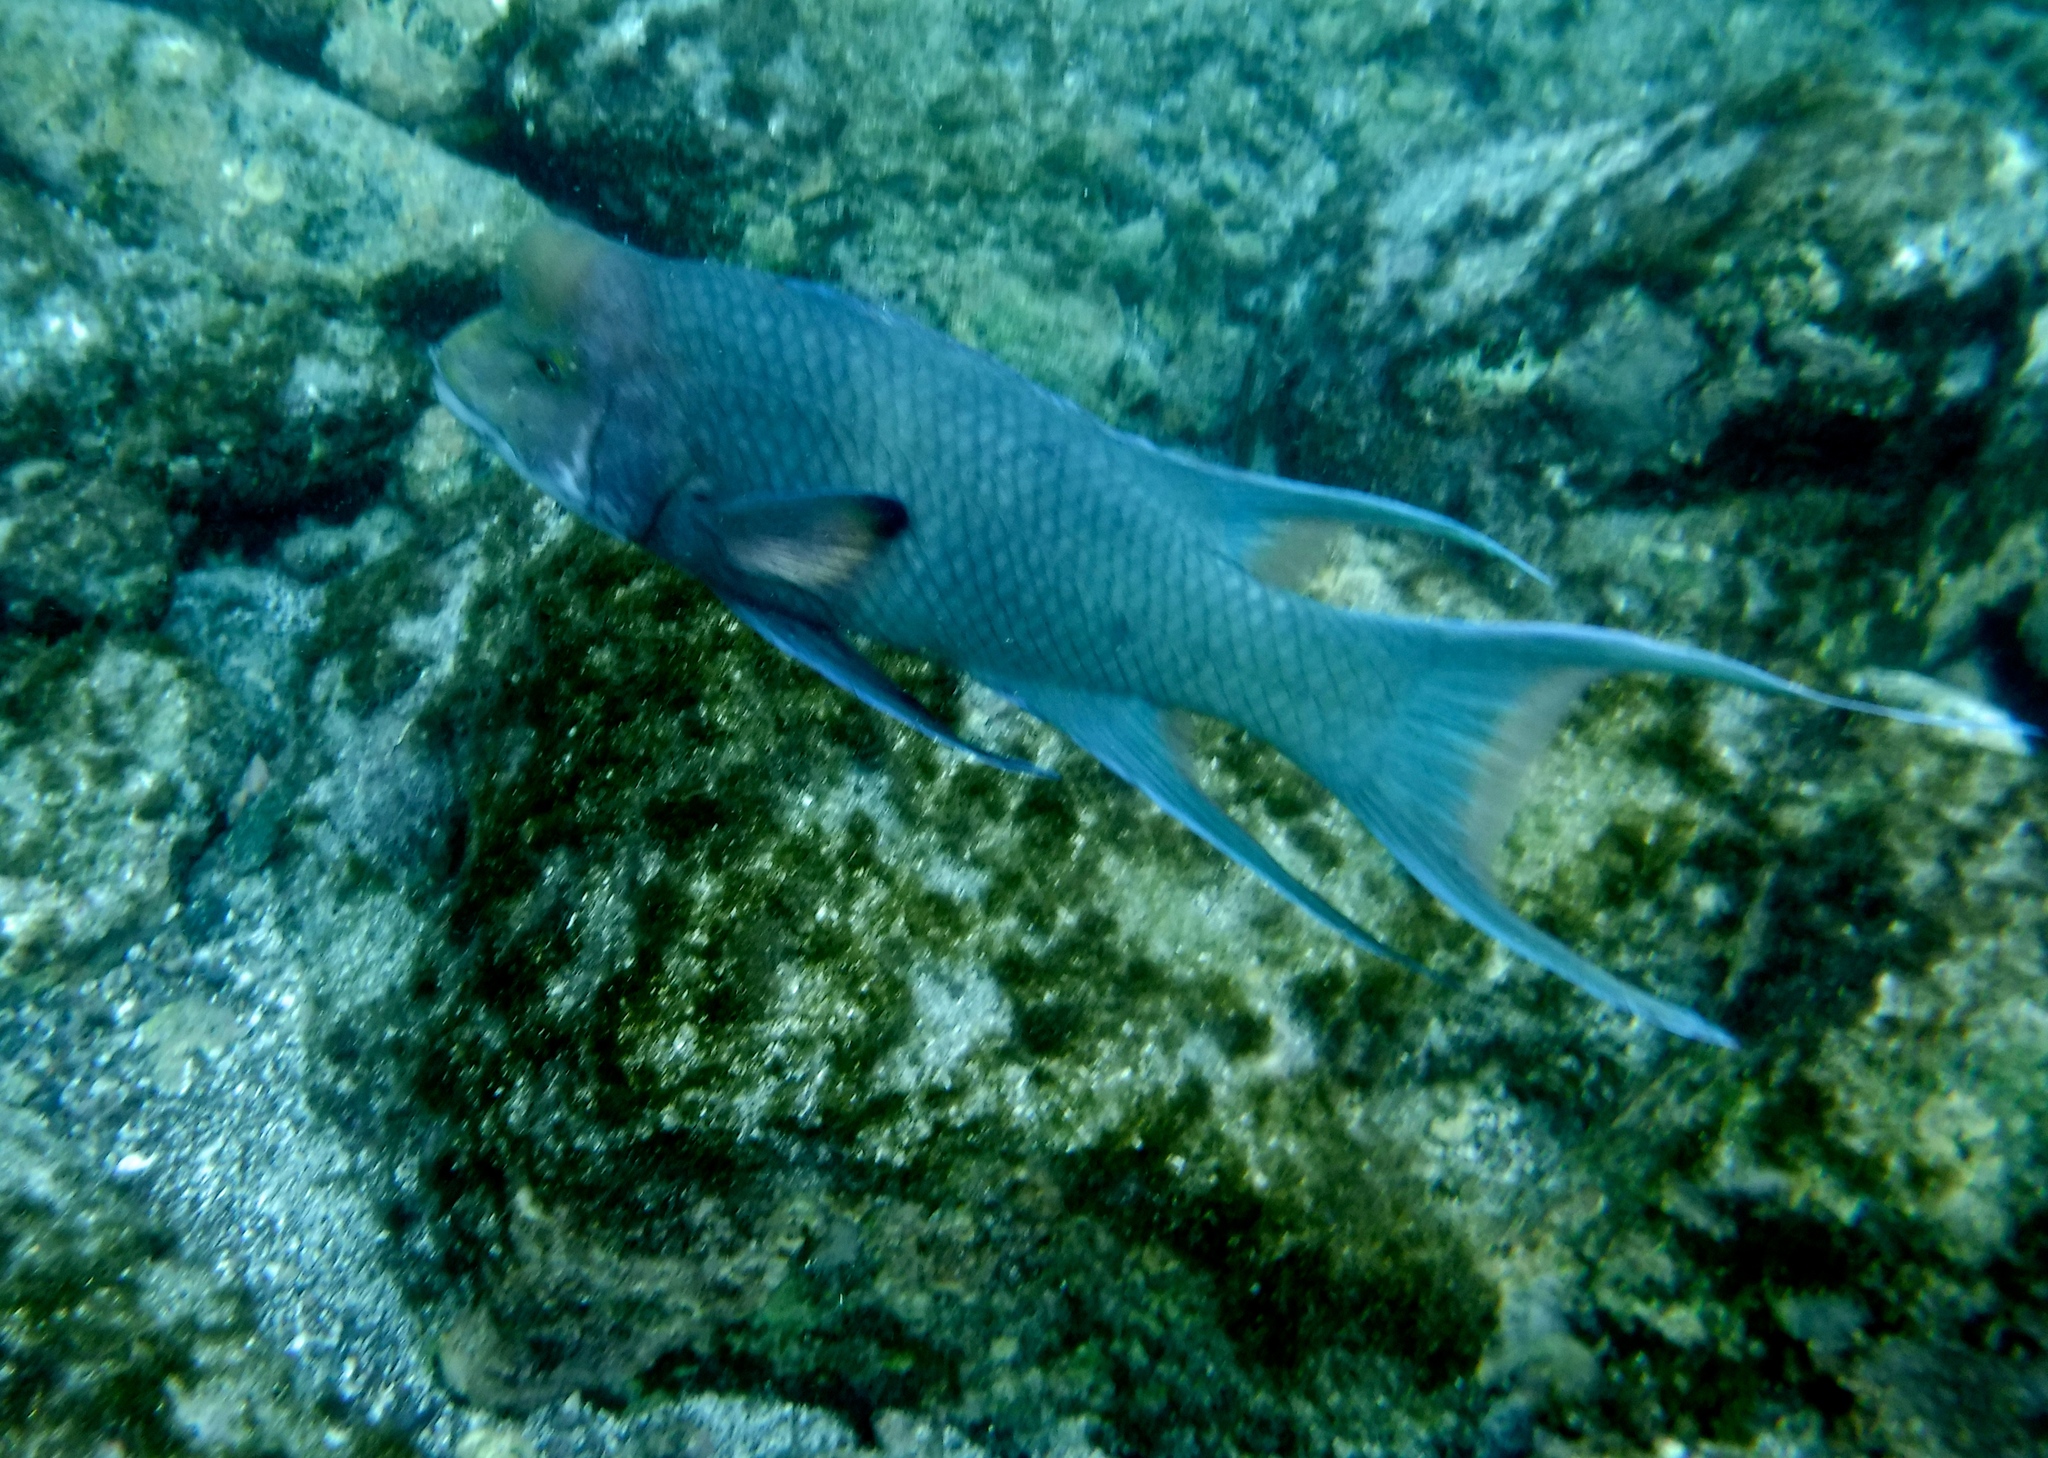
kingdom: Animalia
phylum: Chordata
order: Perciformes
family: Labridae
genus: Bodianus
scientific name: Bodianus diplotaenia
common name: Mexican hogfish
